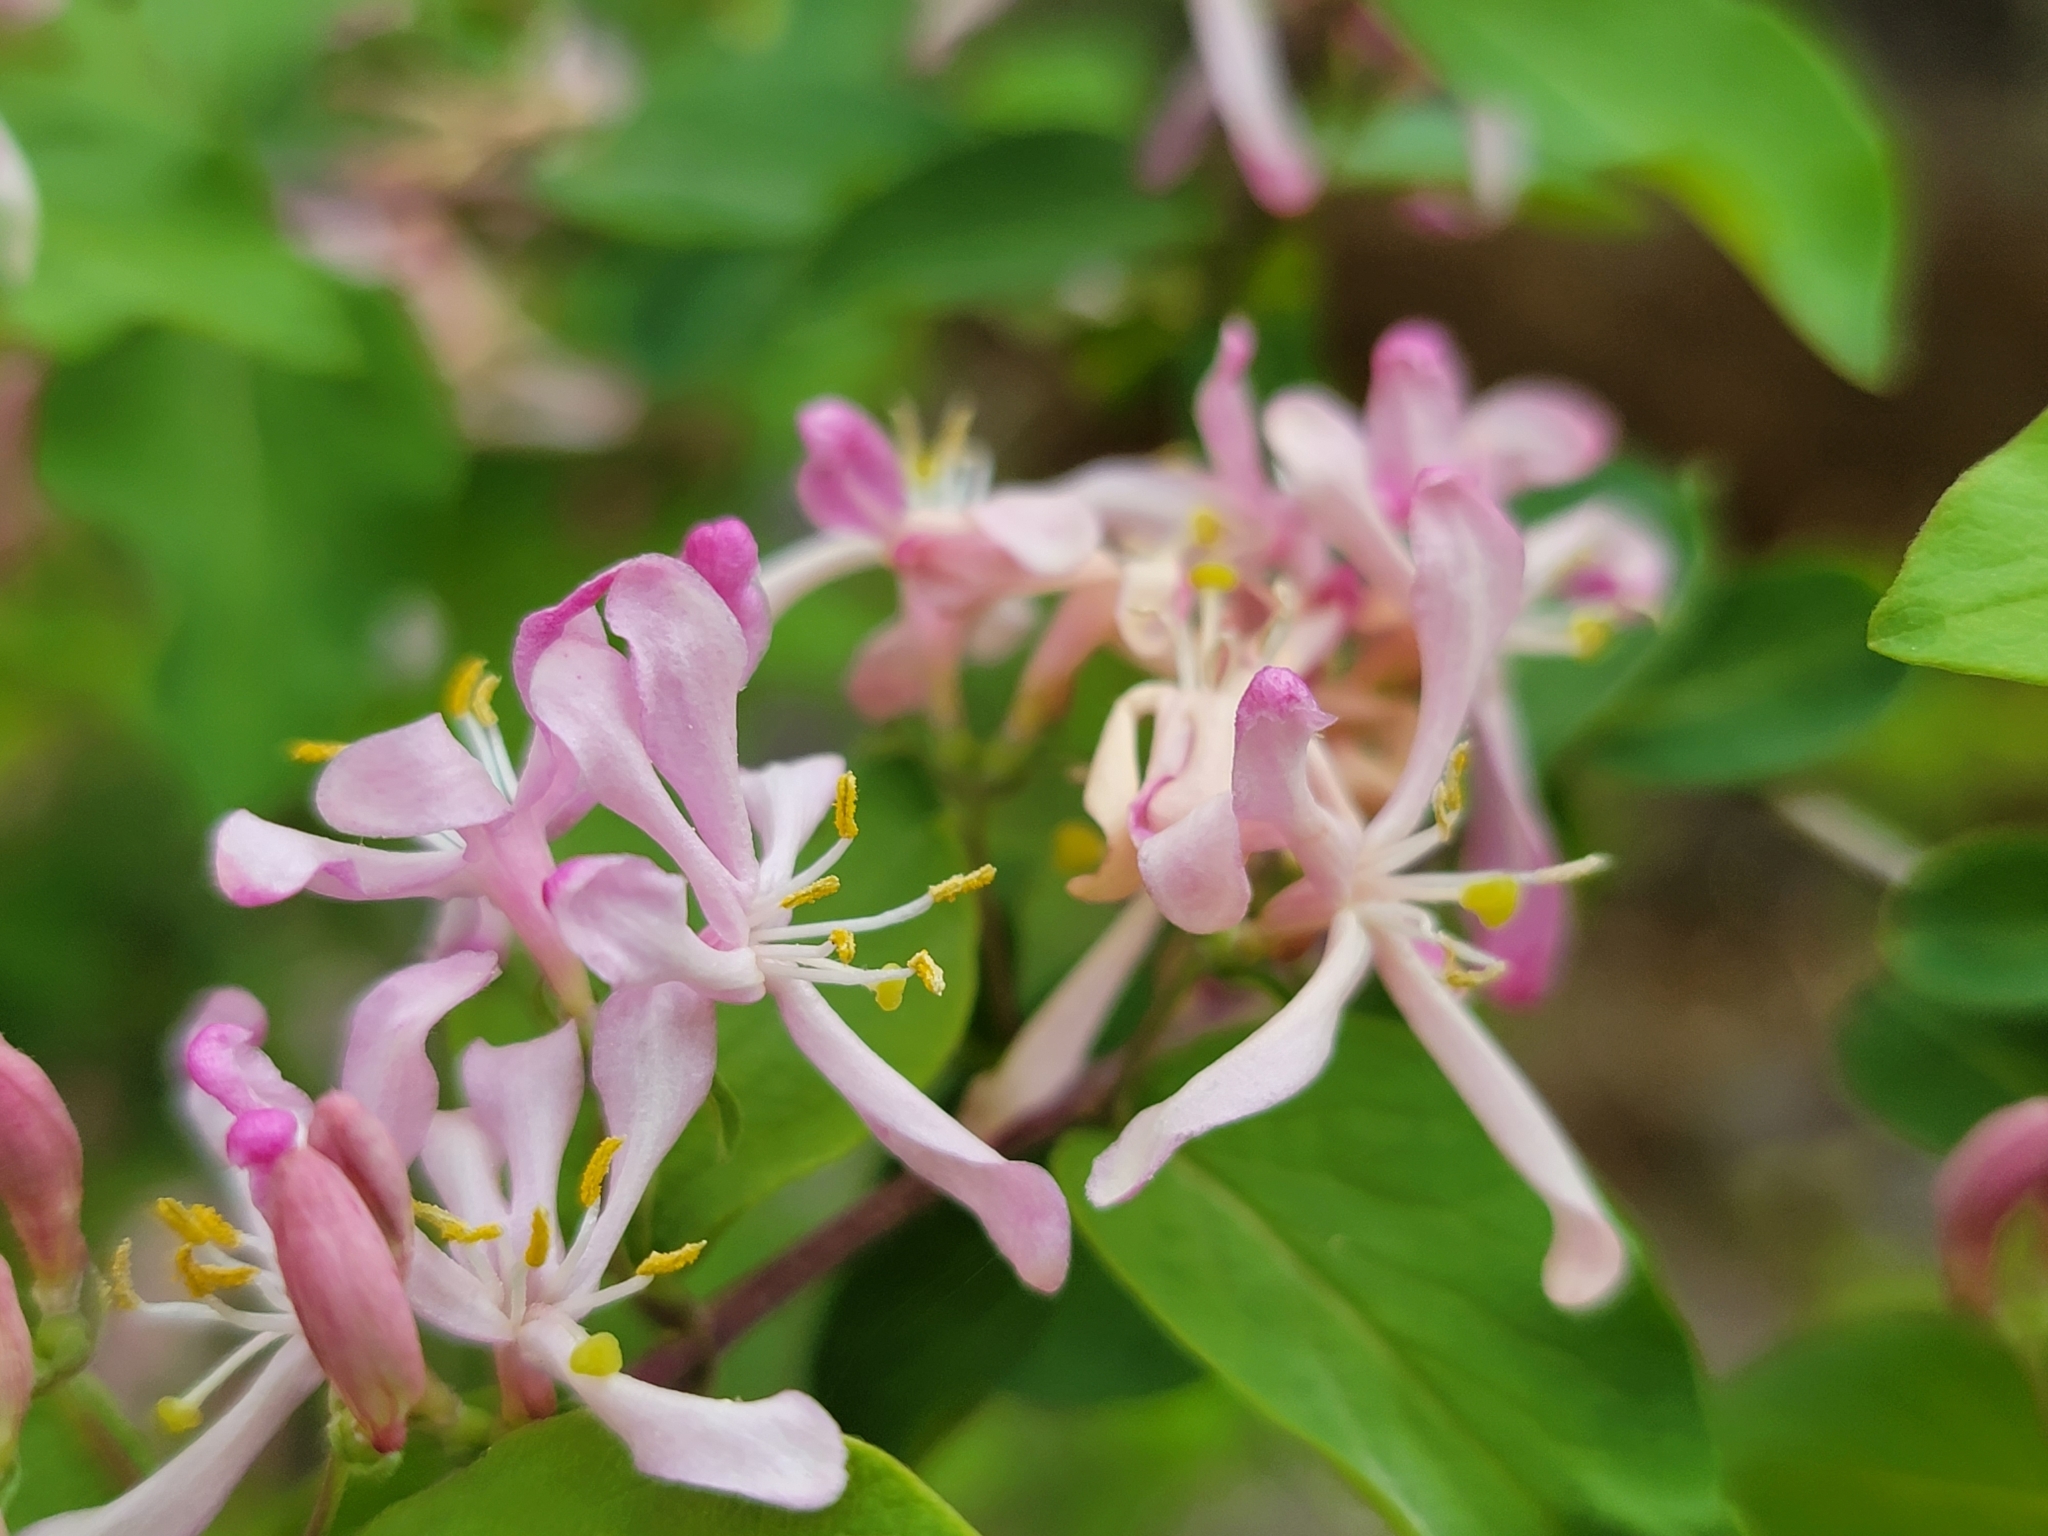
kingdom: Plantae
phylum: Tracheophyta
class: Magnoliopsida
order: Dipsacales
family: Caprifoliaceae
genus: Lonicera
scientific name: Lonicera tatarica
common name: Tatarian honeysuckle
